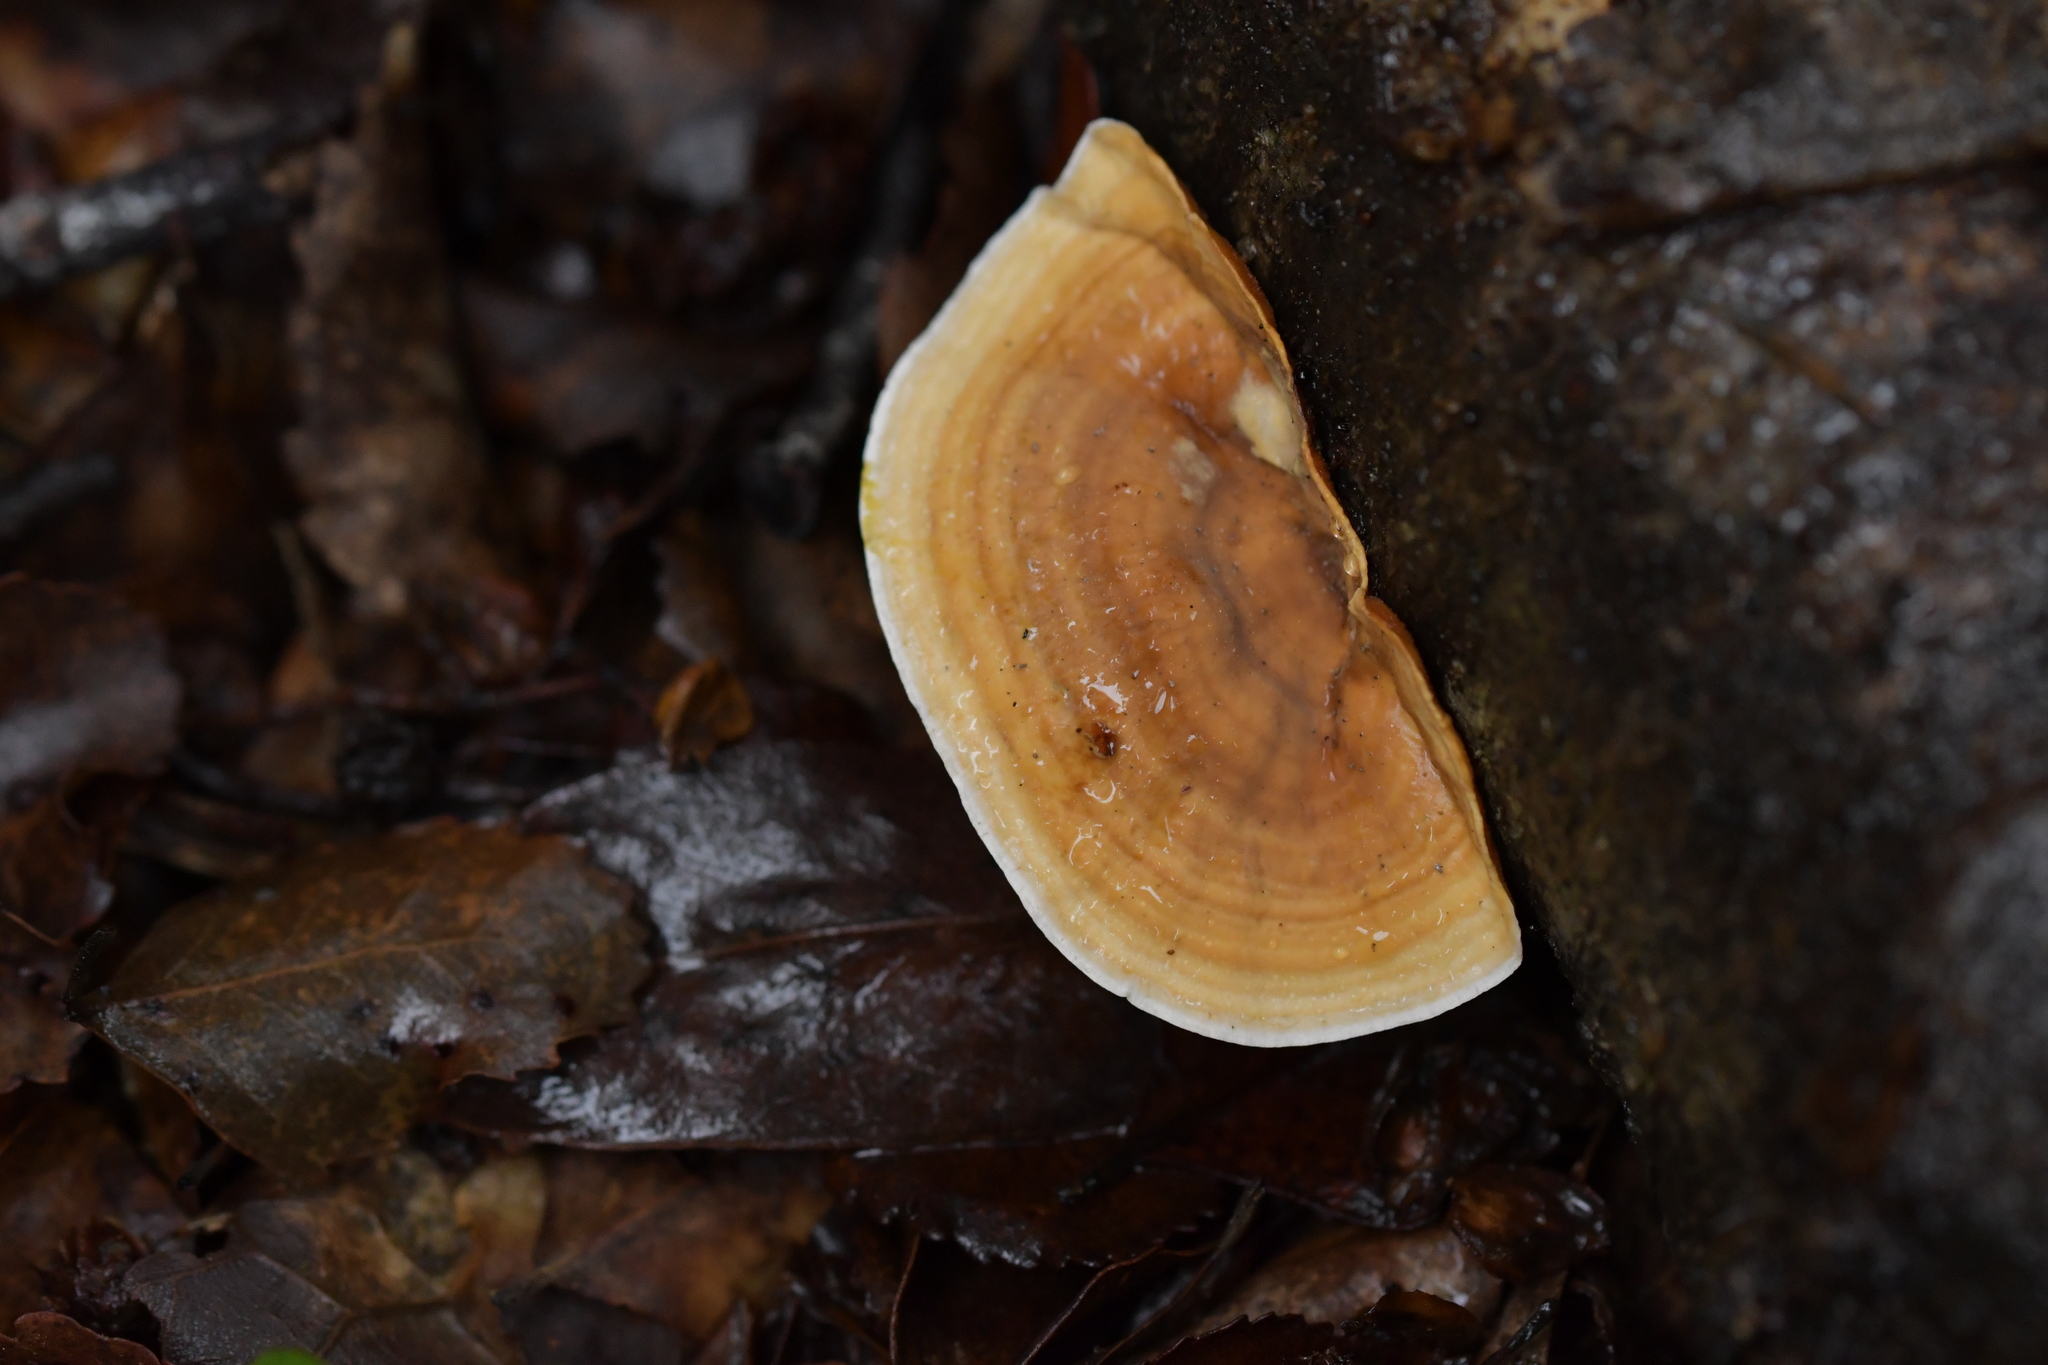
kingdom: Fungi
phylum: Basidiomycota
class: Agaricomycetes
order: Russulales
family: Stereaceae
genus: Stereum
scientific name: Stereum versicolor
